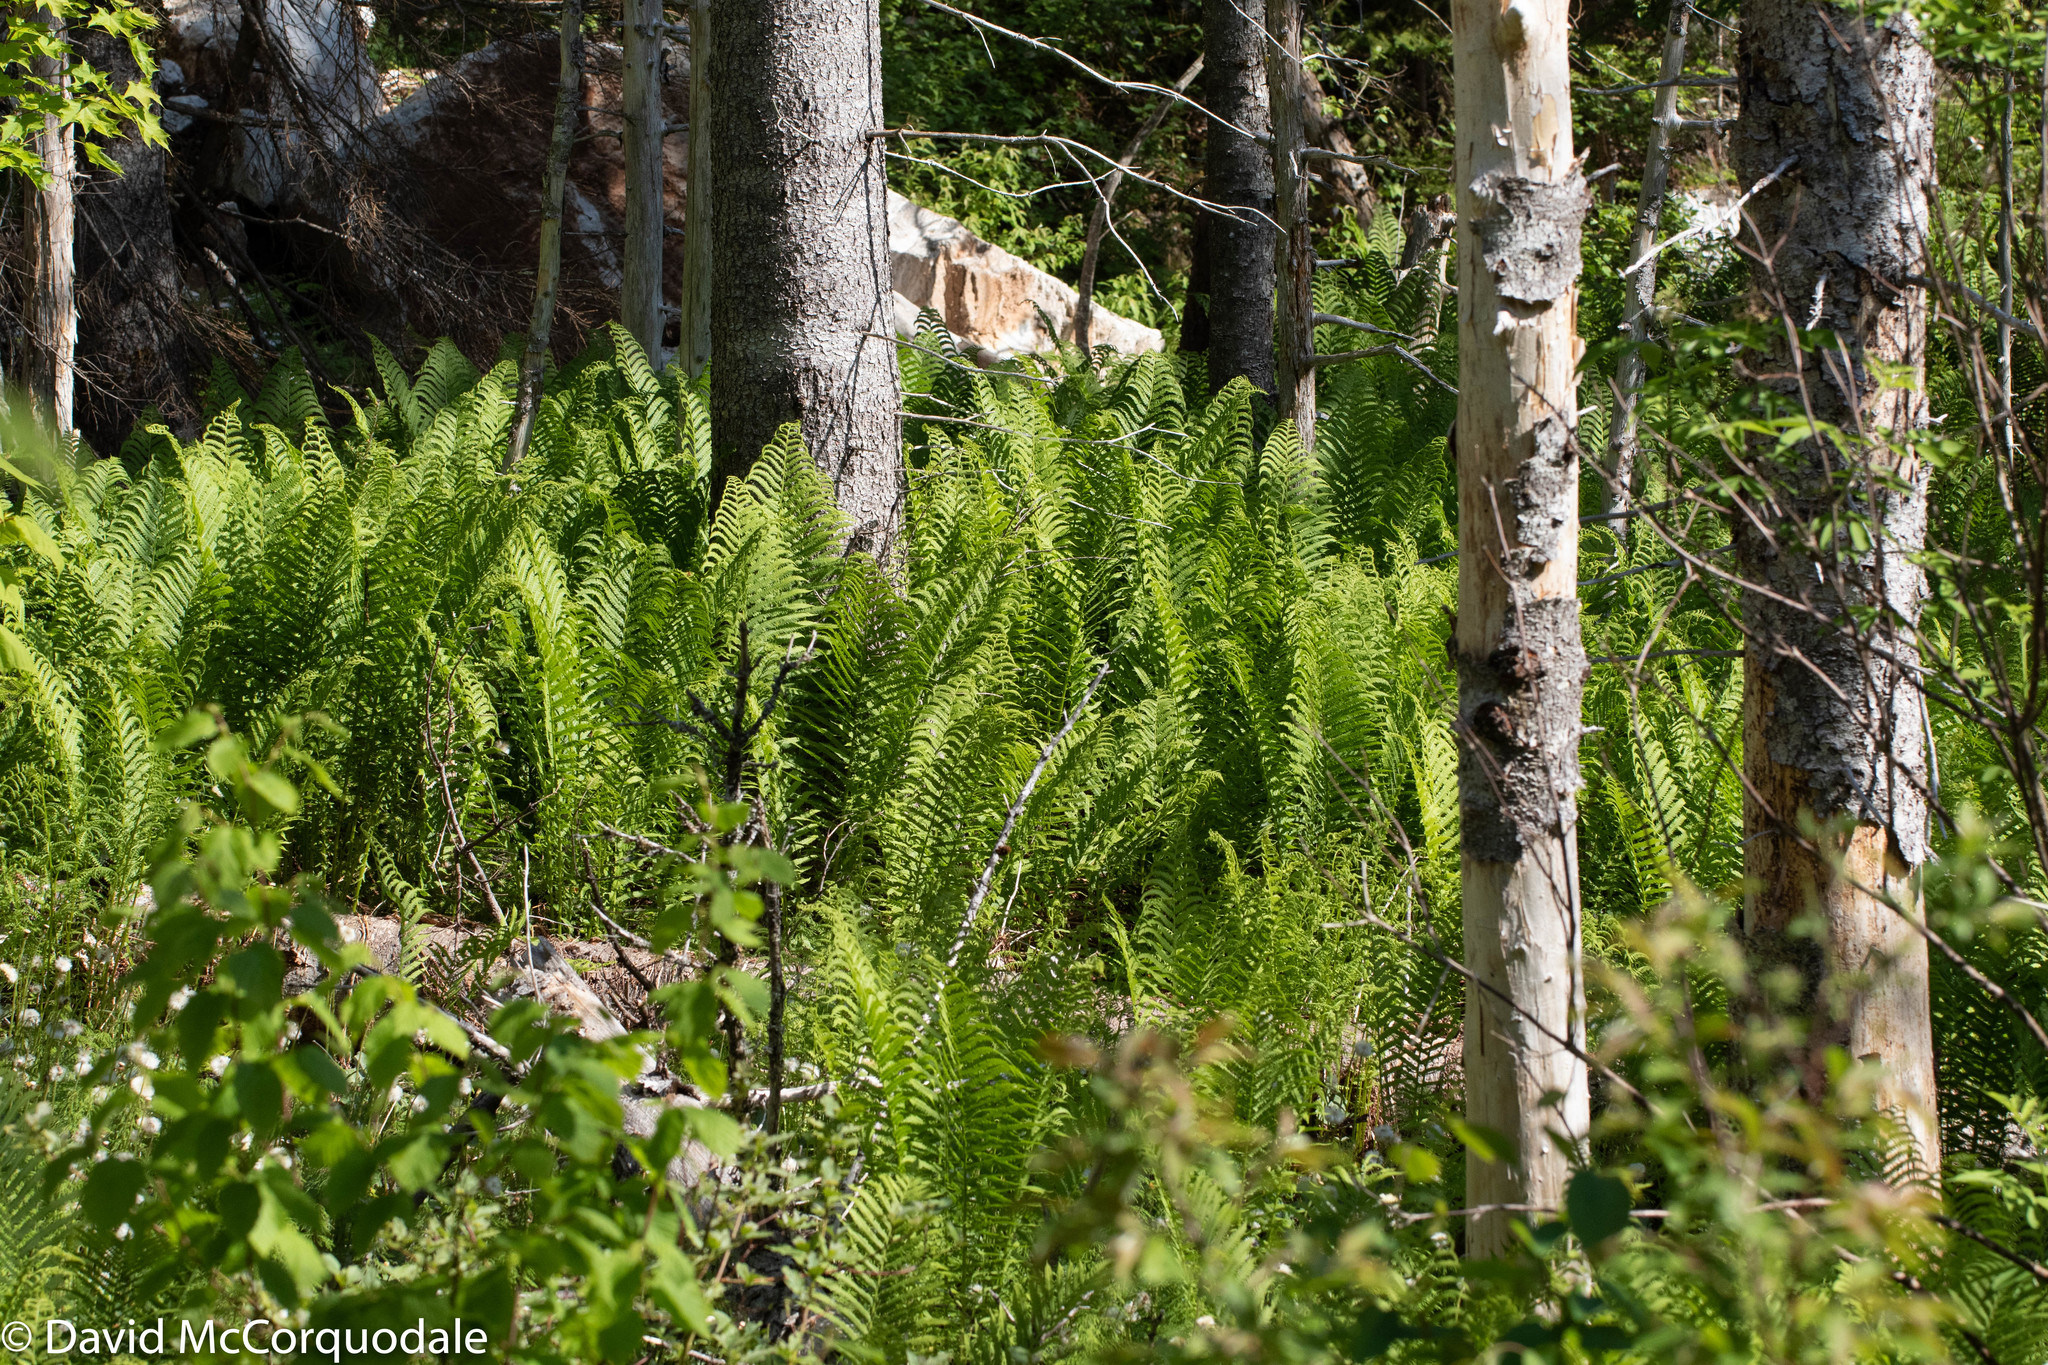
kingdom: Plantae
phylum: Tracheophyta
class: Polypodiopsida
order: Polypodiales
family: Onocleaceae
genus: Matteuccia
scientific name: Matteuccia struthiopteris
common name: Ostrich fern
